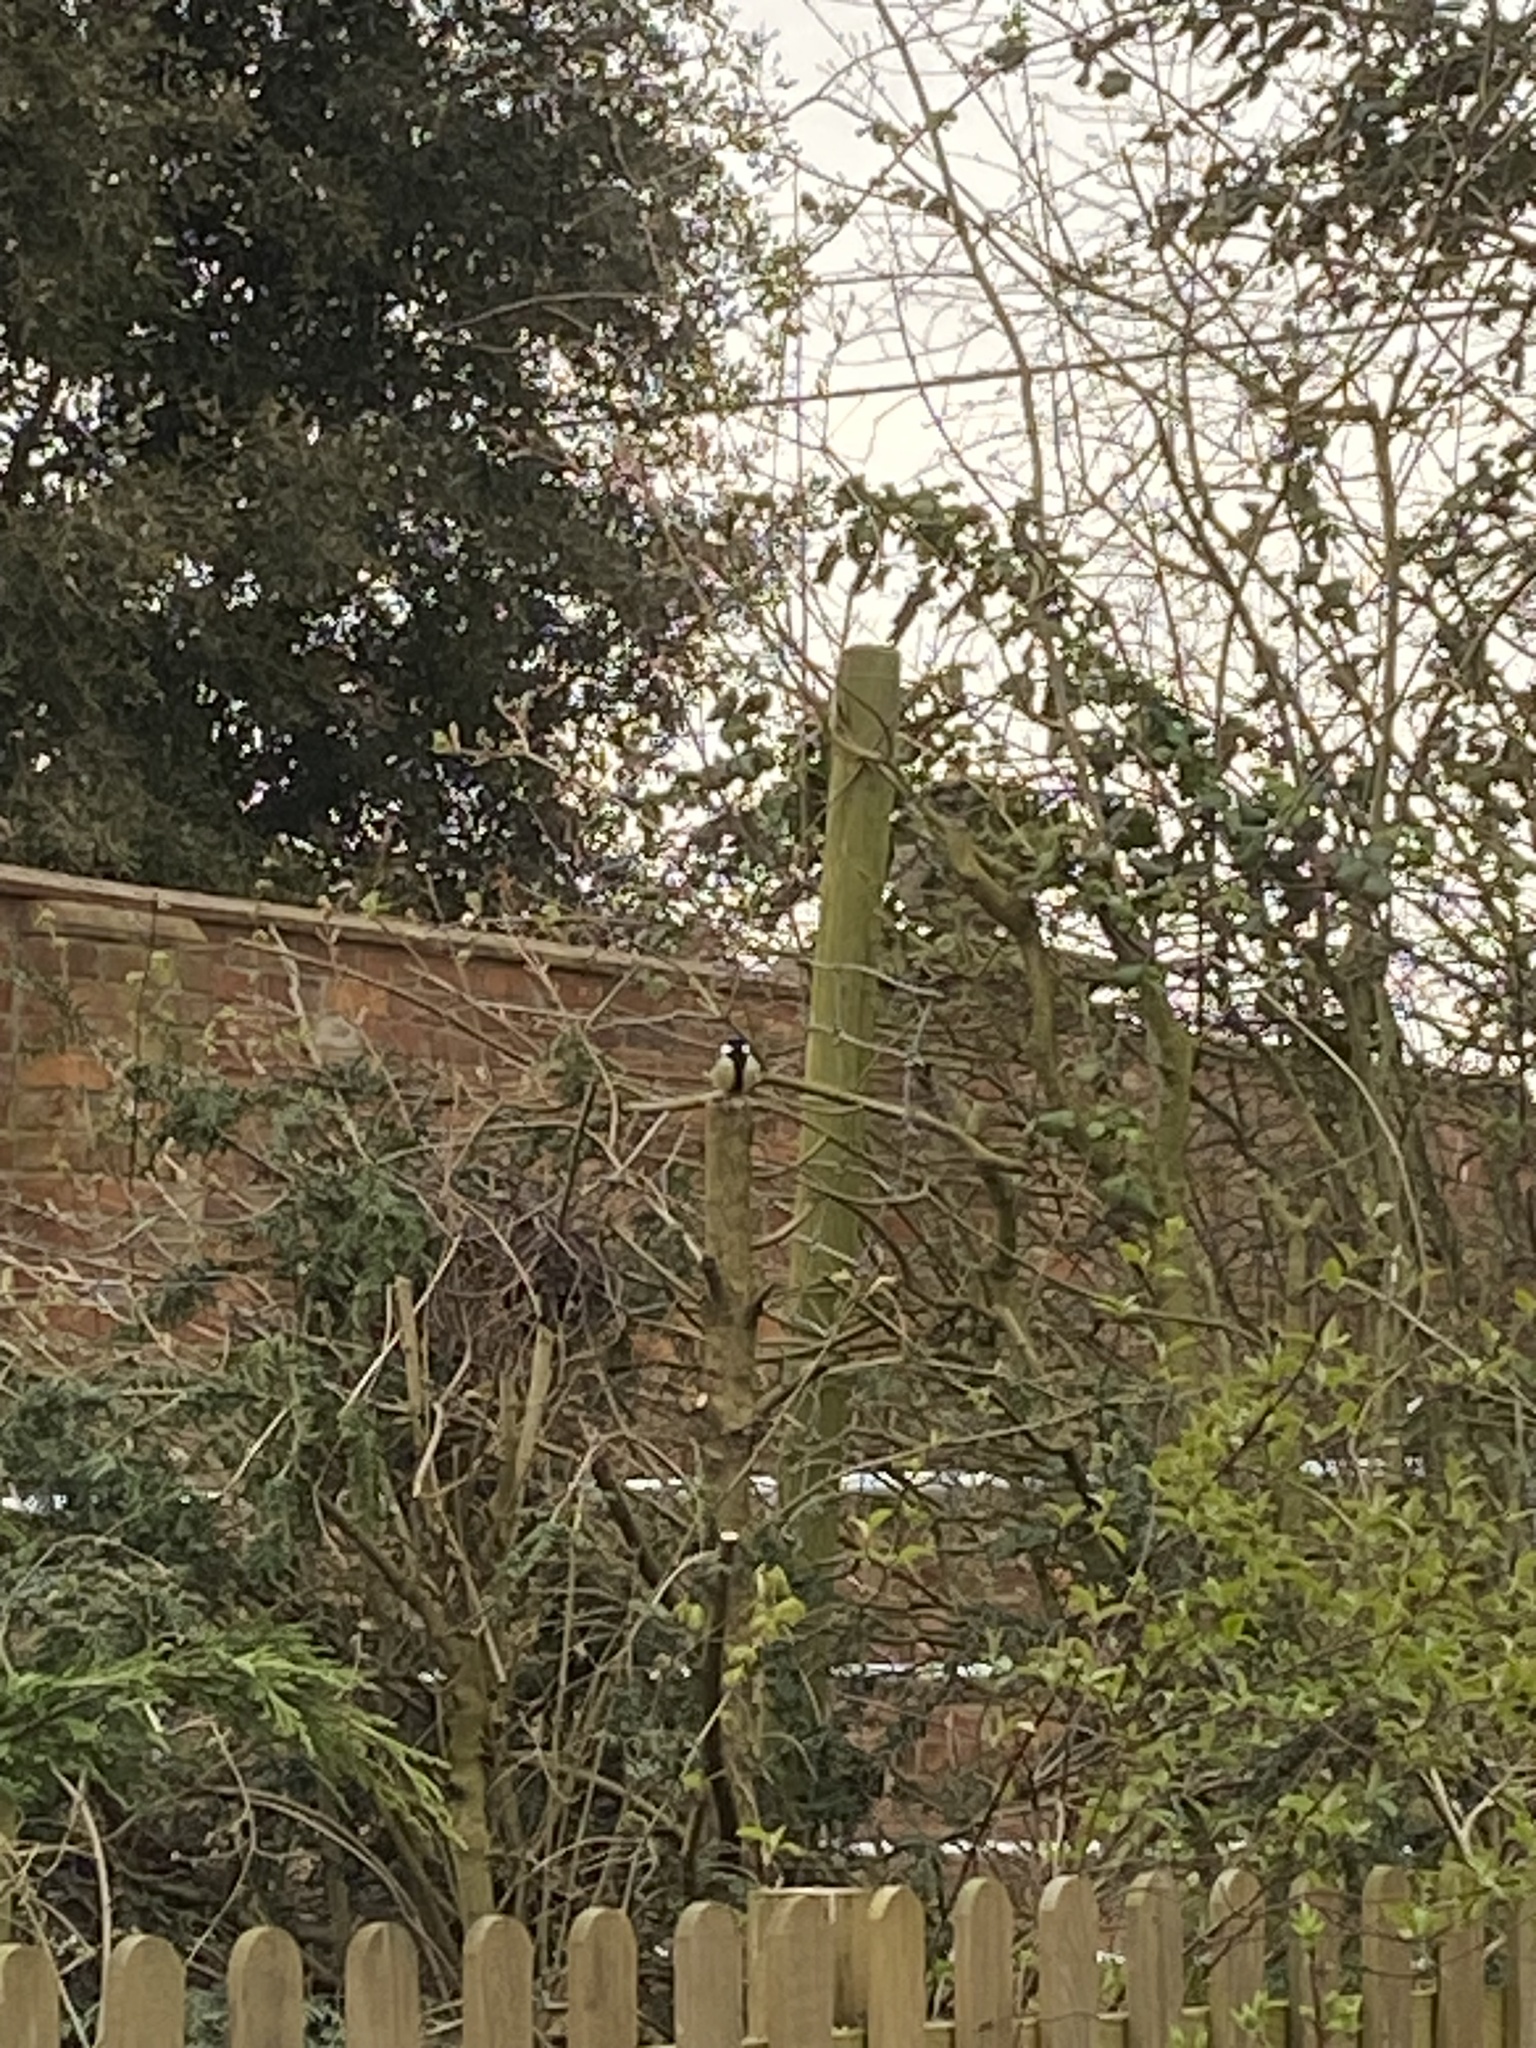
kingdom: Animalia
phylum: Chordata
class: Aves
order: Passeriformes
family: Paridae
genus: Parus
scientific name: Parus major
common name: Great tit
